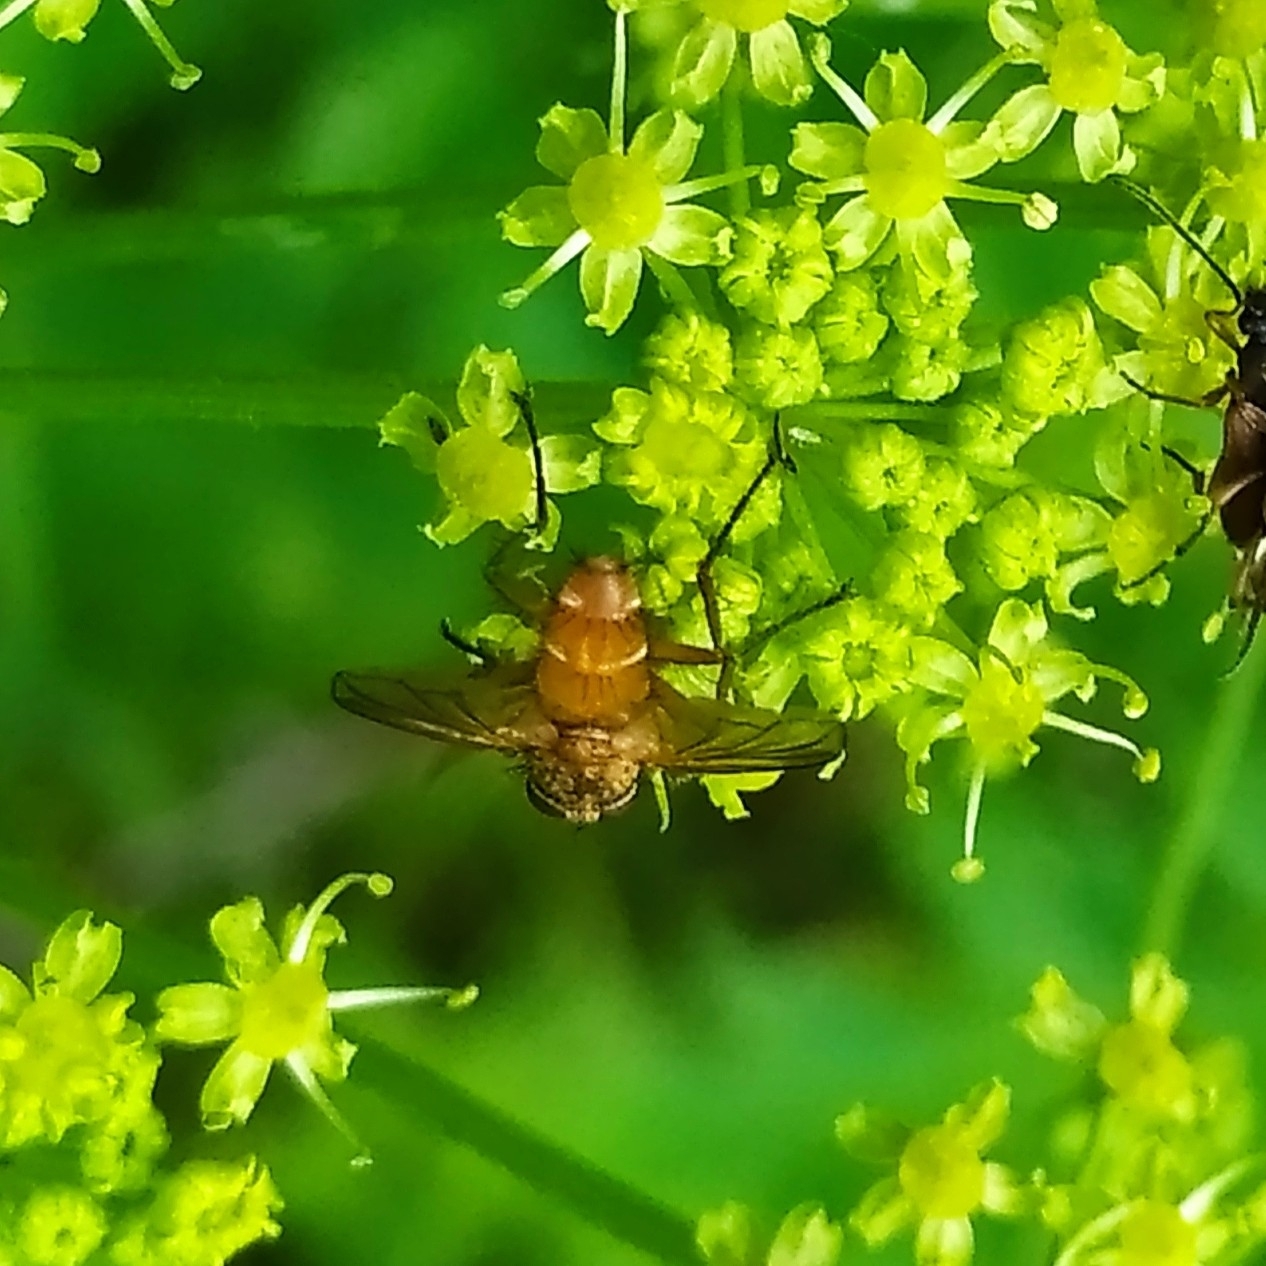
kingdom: Animalia
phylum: Arthropoda
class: Insecta
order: Diptera
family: Tachinidae
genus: Leskia
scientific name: Leskia aurea
